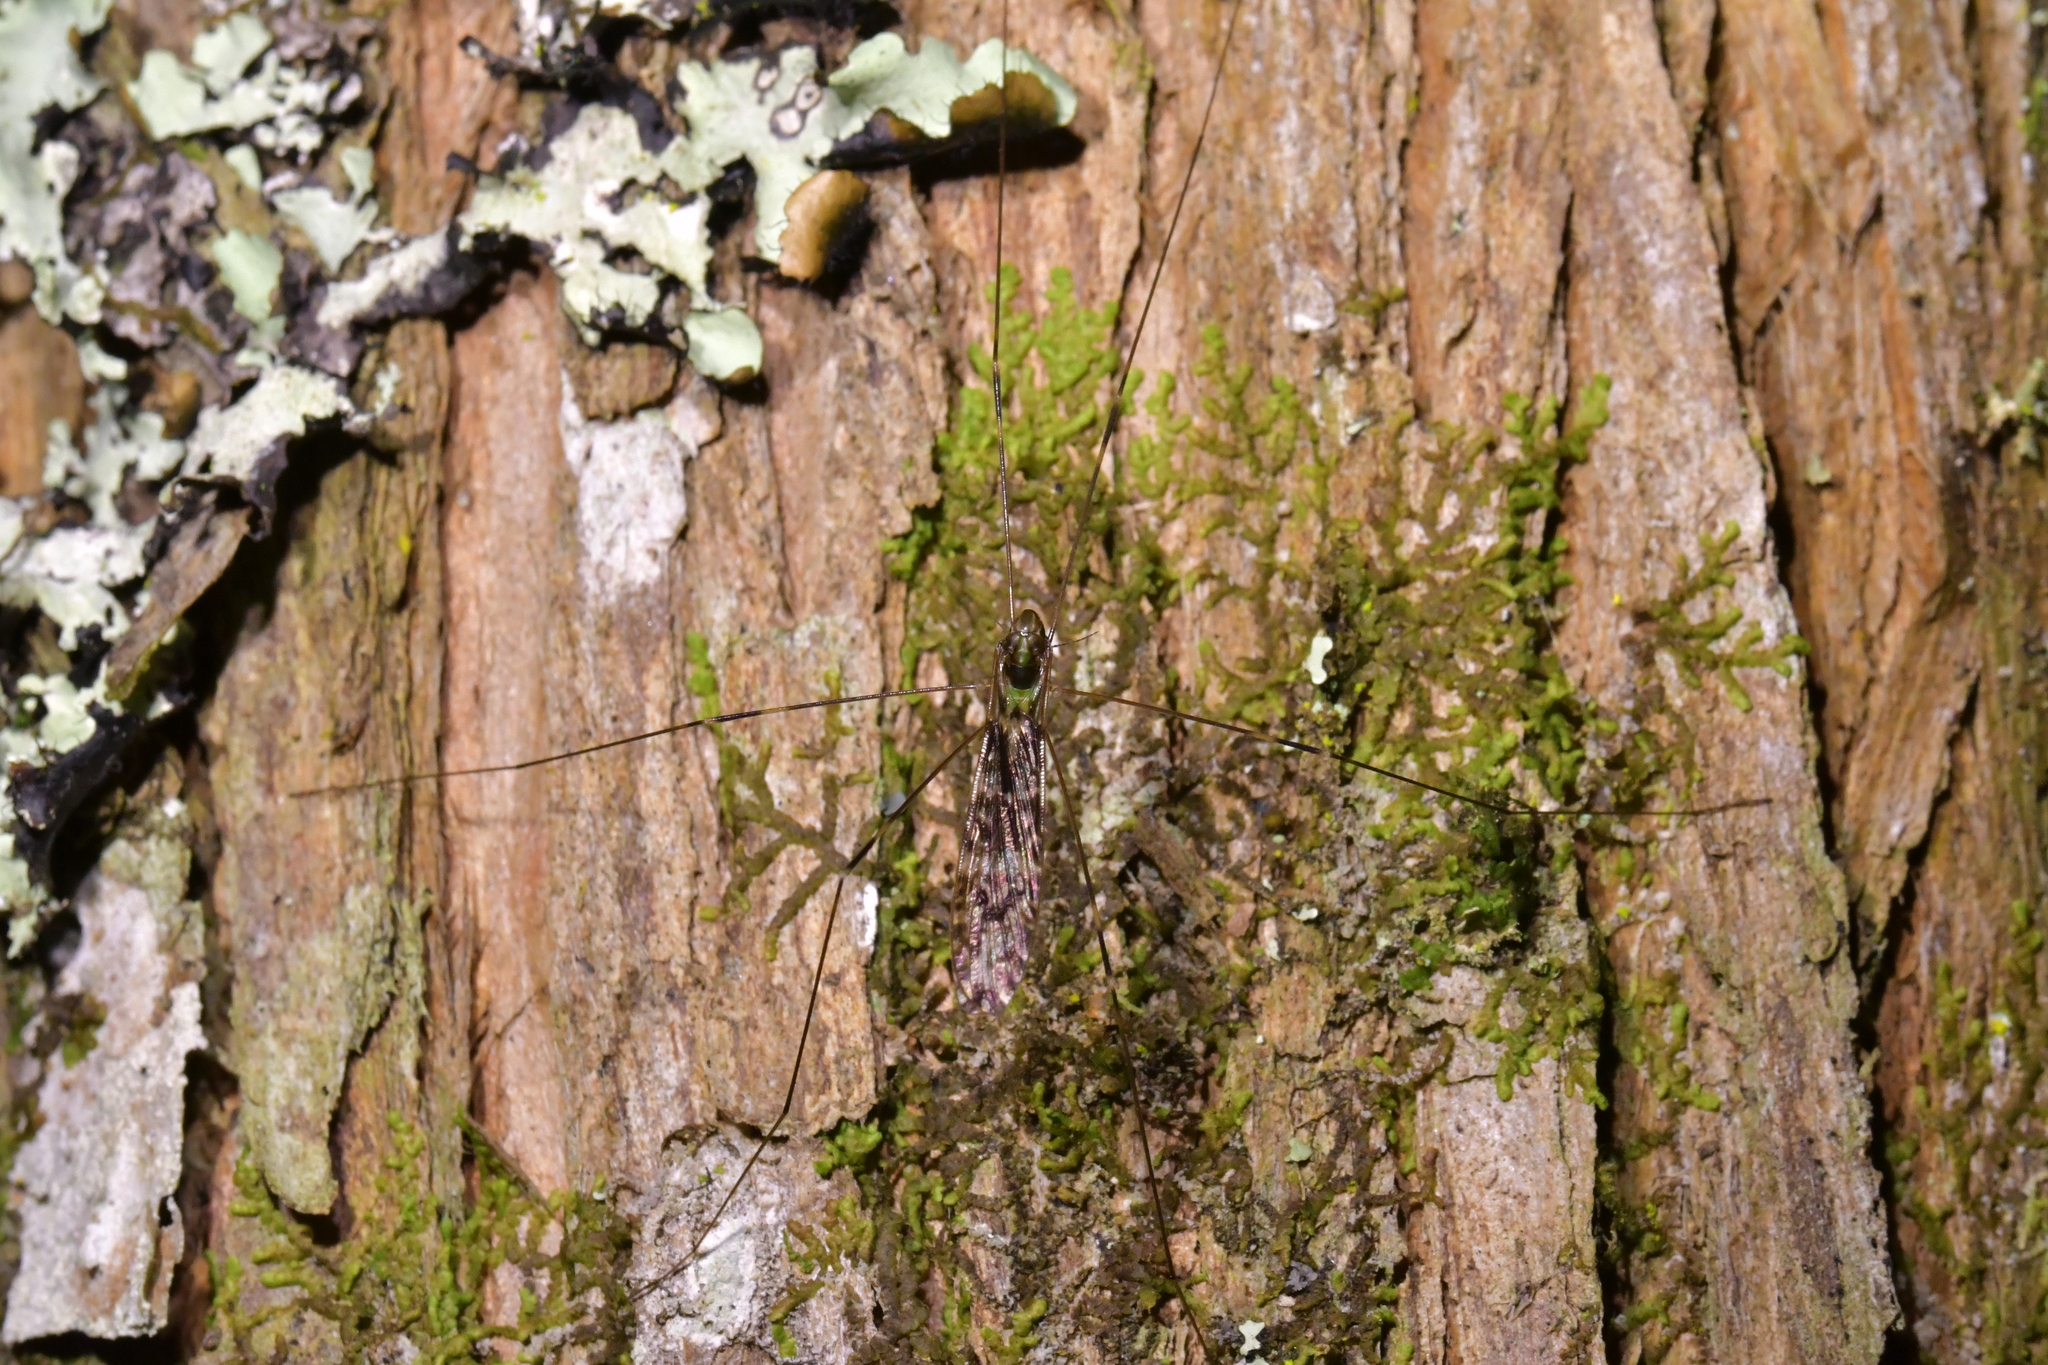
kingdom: Animalia
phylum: Arthropoda
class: Insecta
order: Diptera
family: Limoniidae
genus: Discobola
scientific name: Discobola dohrni
